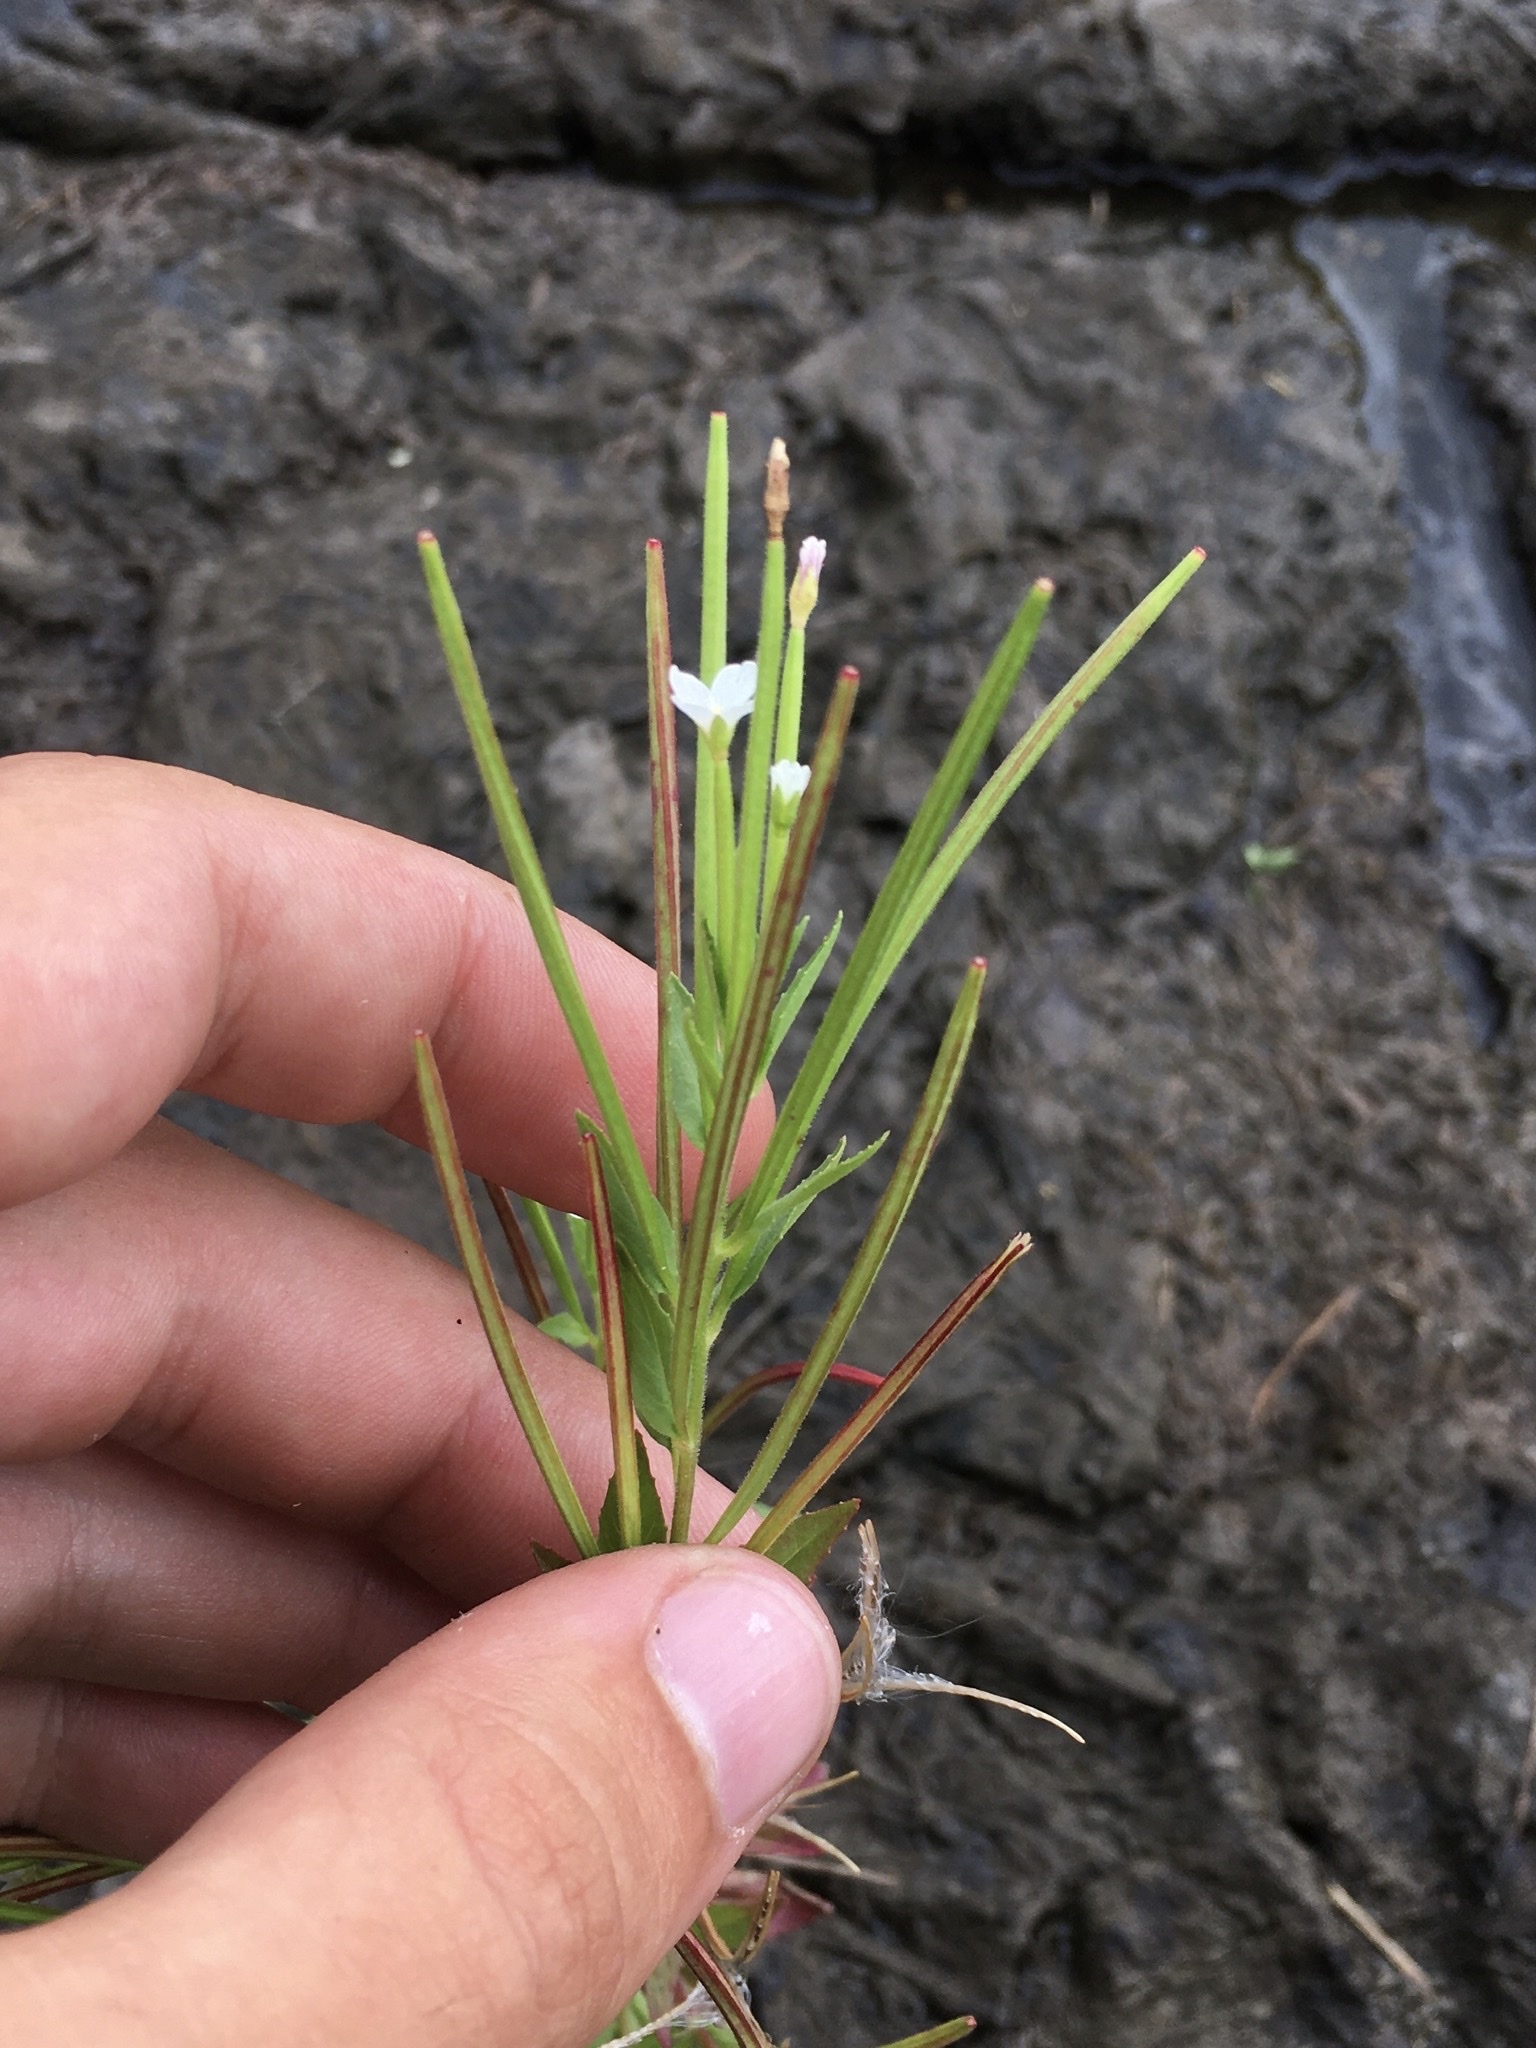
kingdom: Plantae
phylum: Tracheophyta
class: Magnoliopsida
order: Myrtales
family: Onagraceae
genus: Epilobium
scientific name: Epilobium ciliatum
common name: American willowherb
